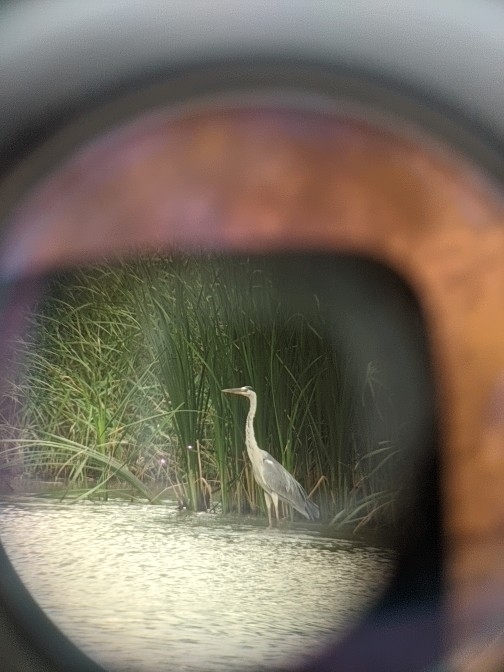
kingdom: Animalia
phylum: Chordata
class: Aves
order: Pelecaniformes
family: Ardeidae
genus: Ardea
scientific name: Ardea cinerea
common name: Grey heron
